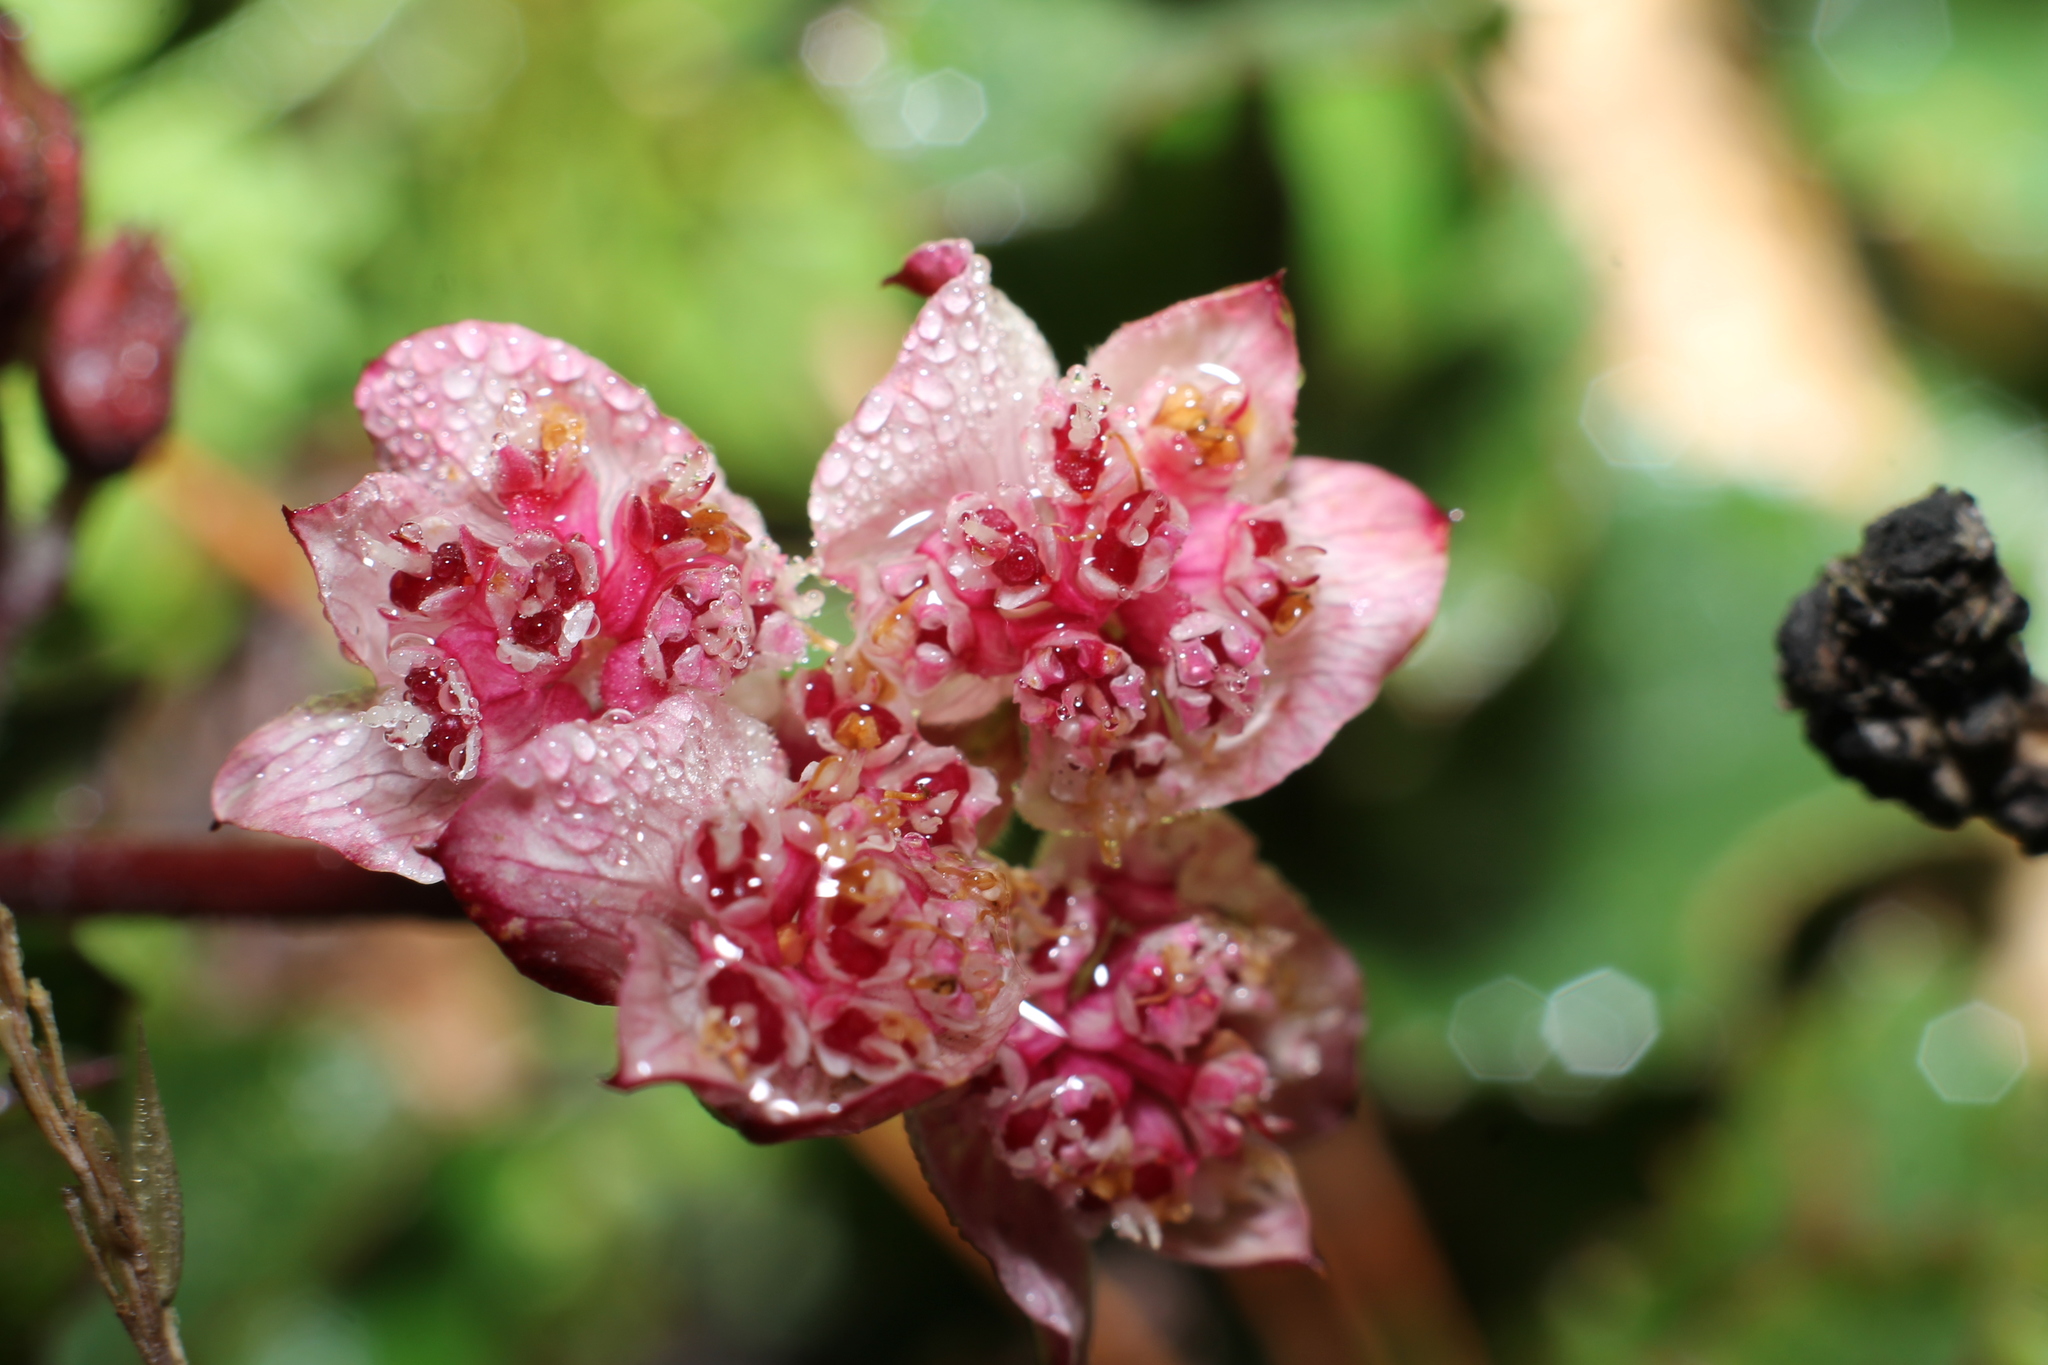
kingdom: Plantae
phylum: Tracheophyta
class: Magnoliopsida
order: Apiales
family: Apiaceae
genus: Xanthosia
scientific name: Xanthosia rotundifolia
